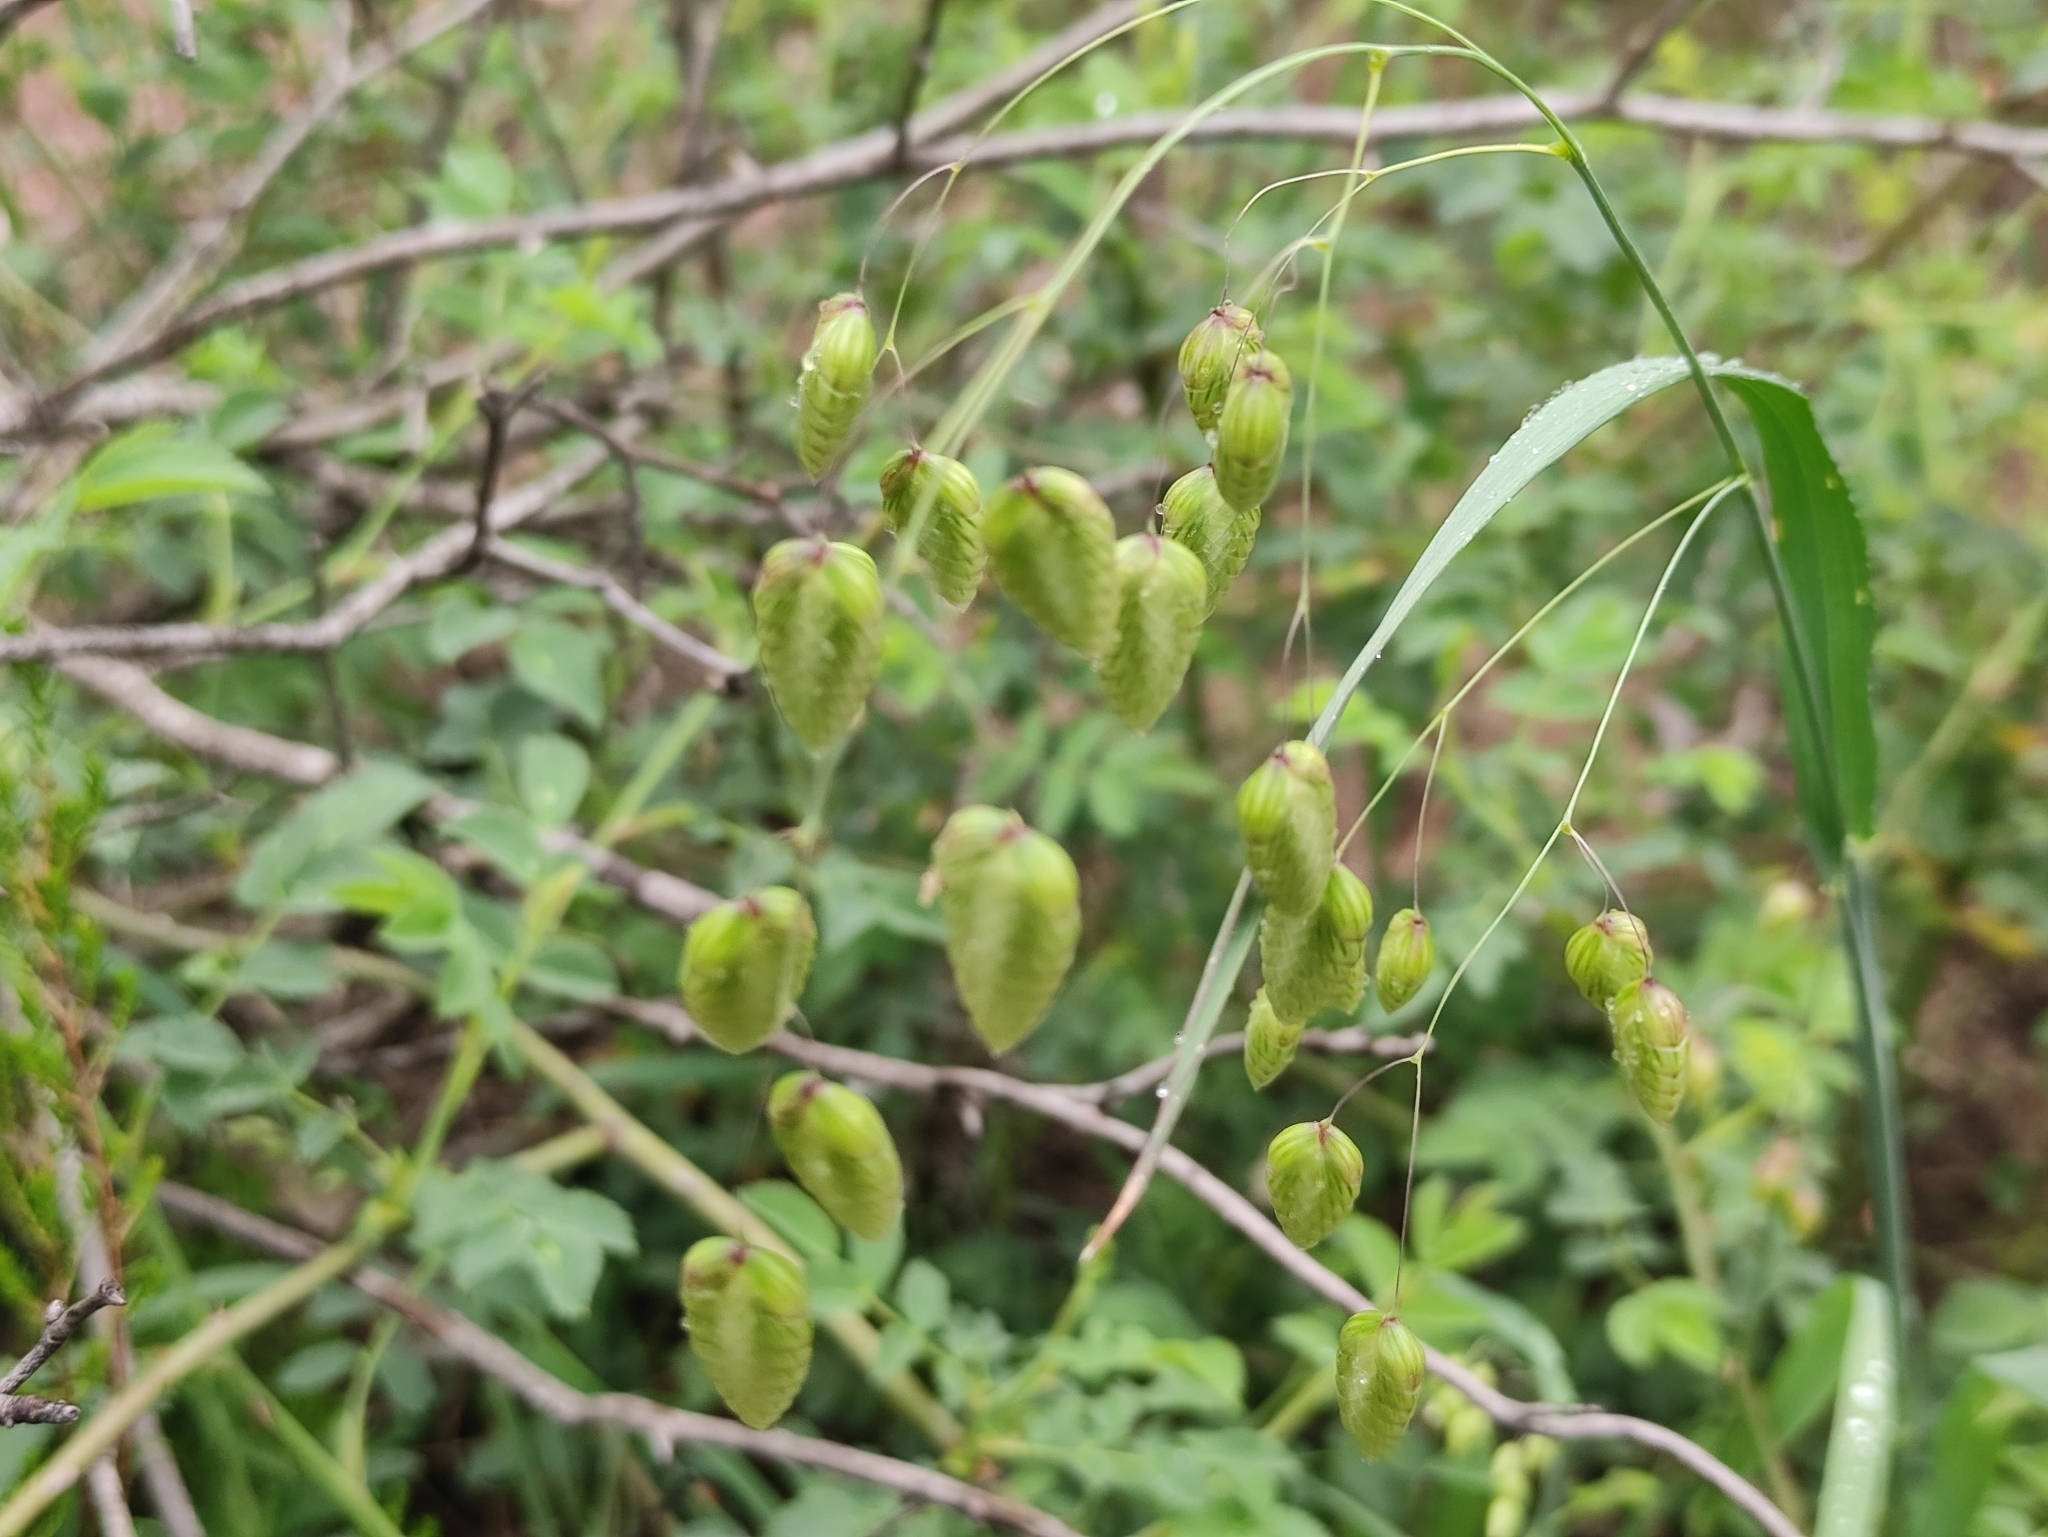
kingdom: Plantae
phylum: Tracheophyta
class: Liliopsida
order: Poales
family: Poaceae
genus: Briza
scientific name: Briza maxima
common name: Big quakinggrass
